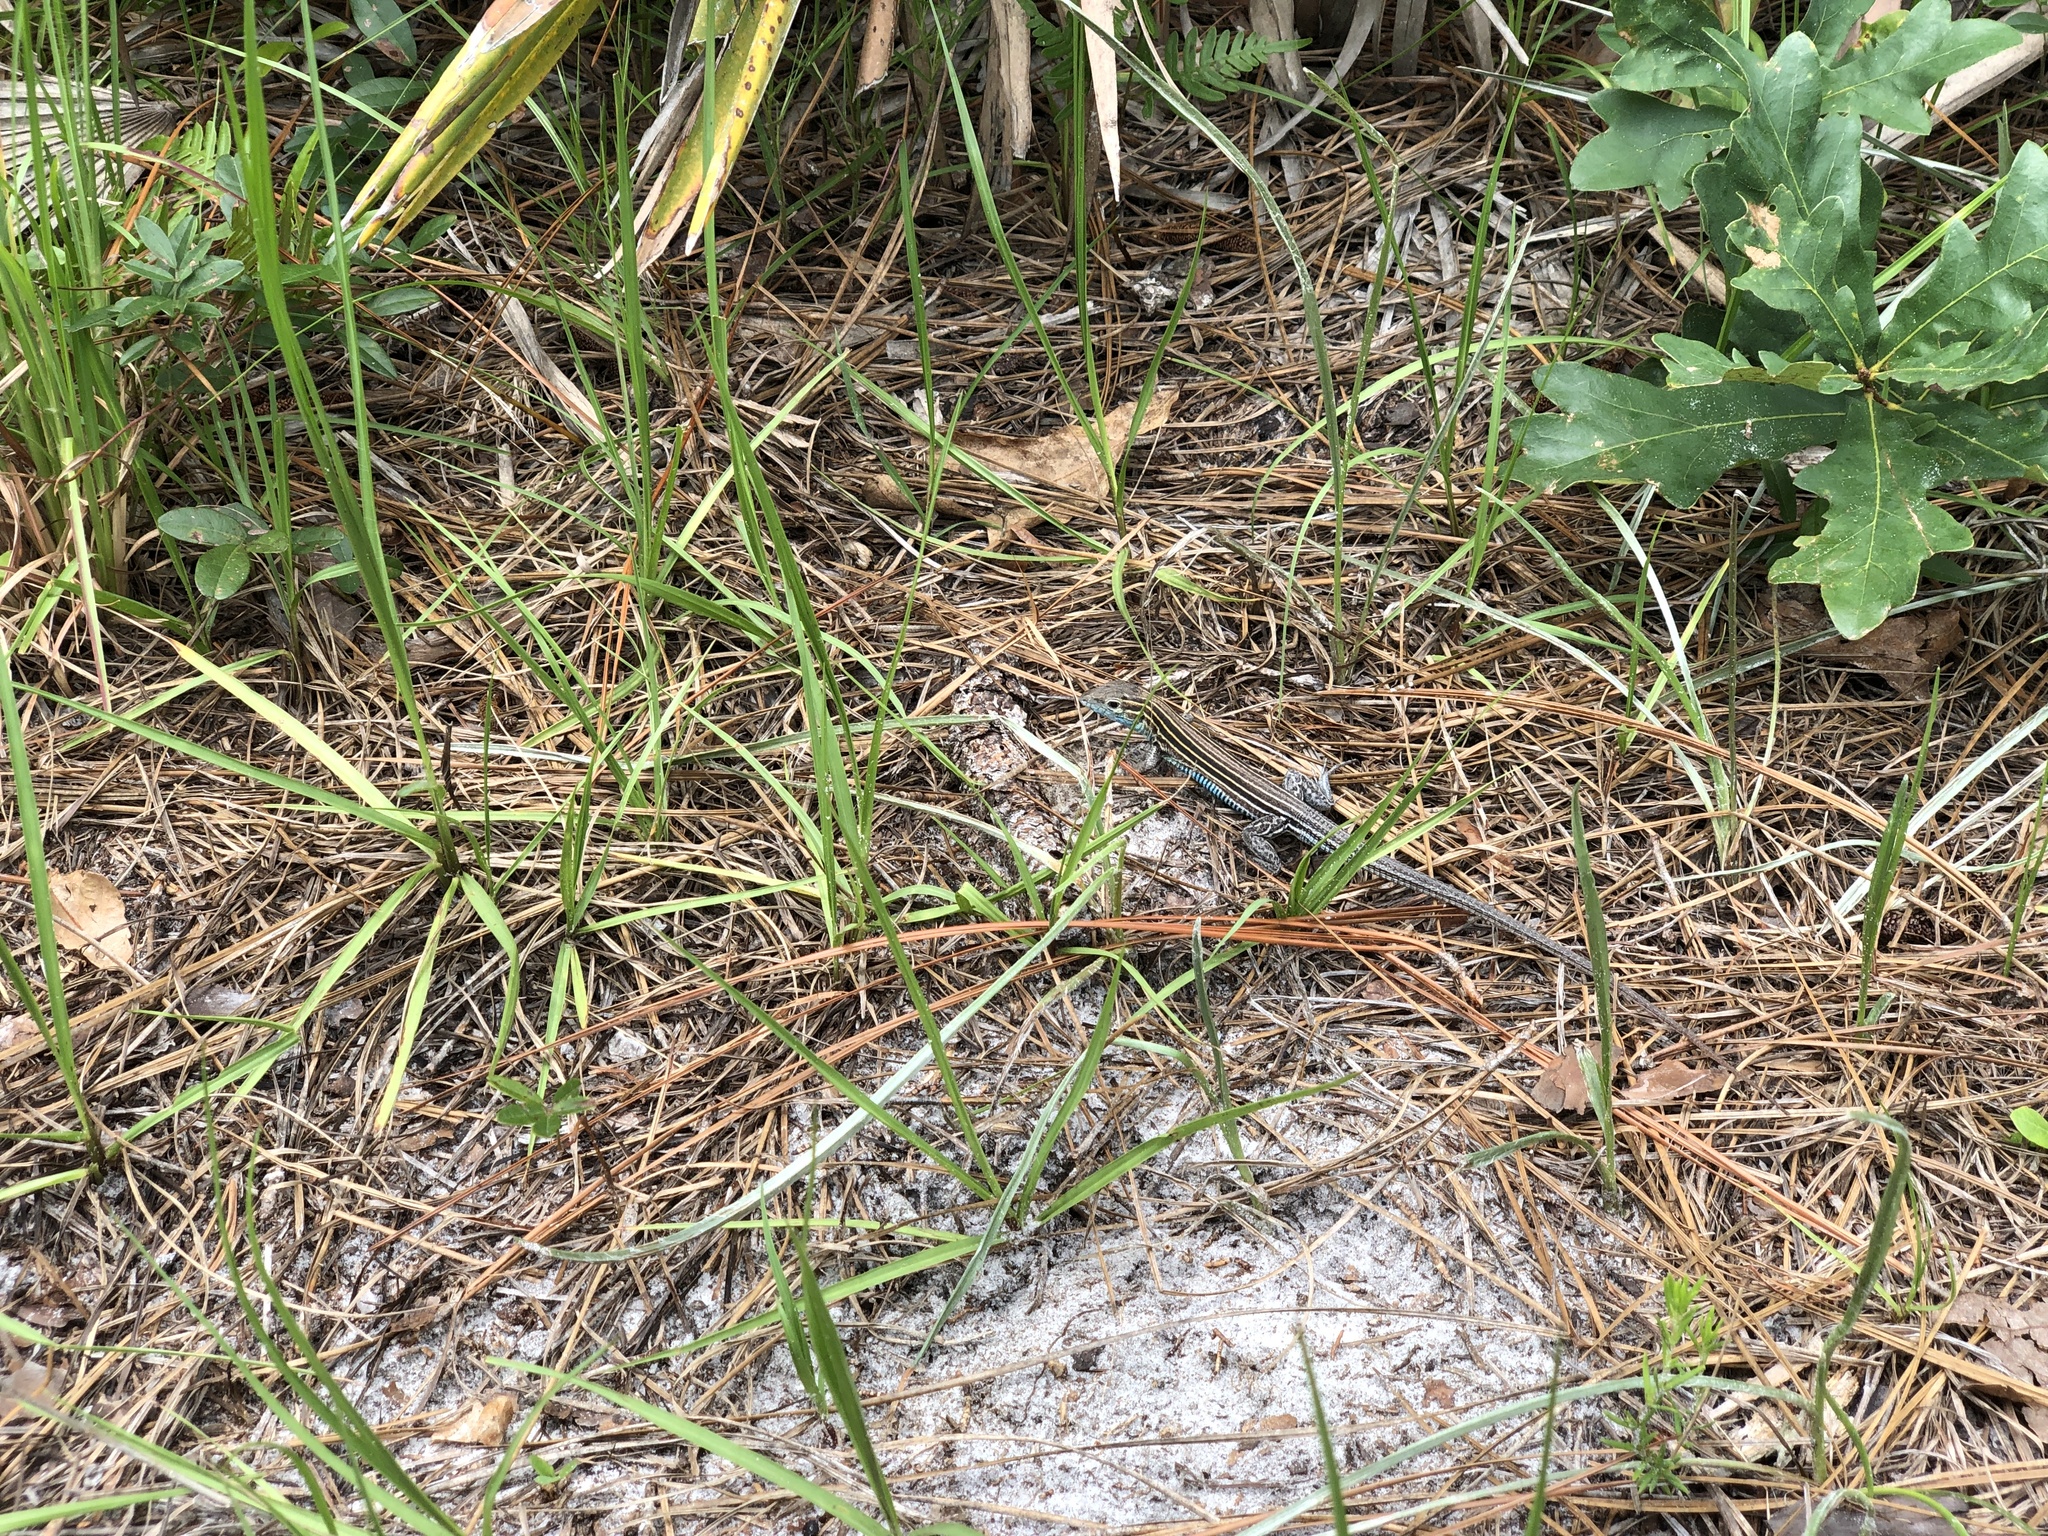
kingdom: Animalia
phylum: Chordata
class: Squamata
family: Teiidae
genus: Aspidoscelis
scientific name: Aspidoscelis sexlineatus
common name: Six-lined racerunner
